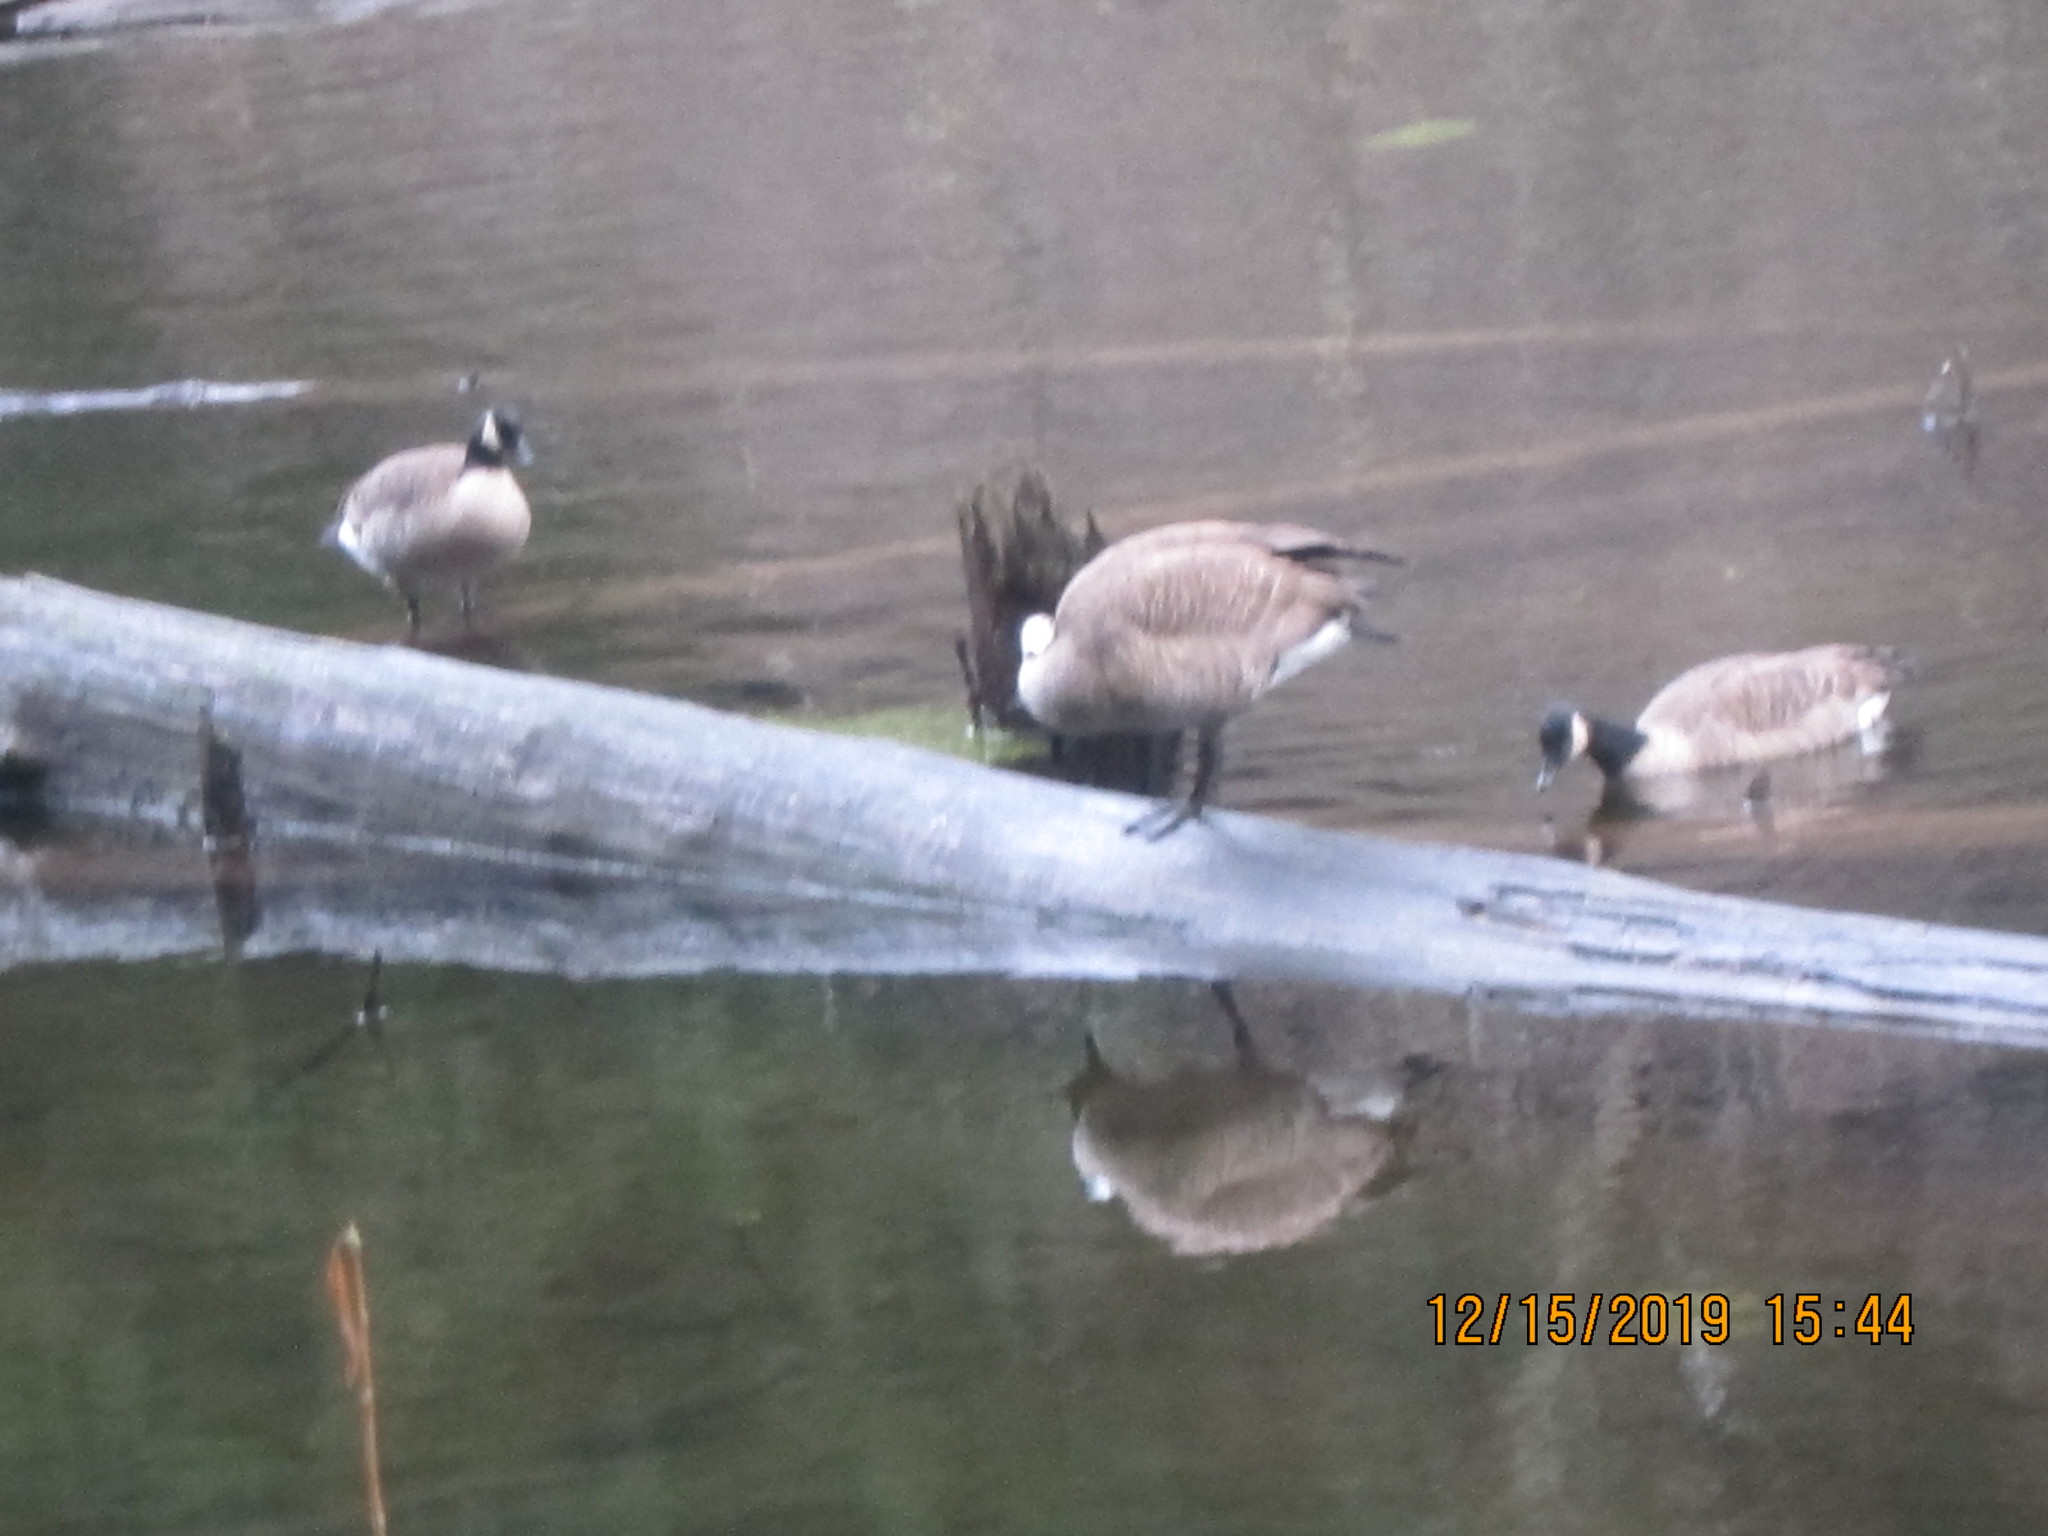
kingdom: Animalia
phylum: Chordata
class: Aves
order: Anseriformes
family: Anatidae
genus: Branta
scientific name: Branta canadensis
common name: Canada goose
